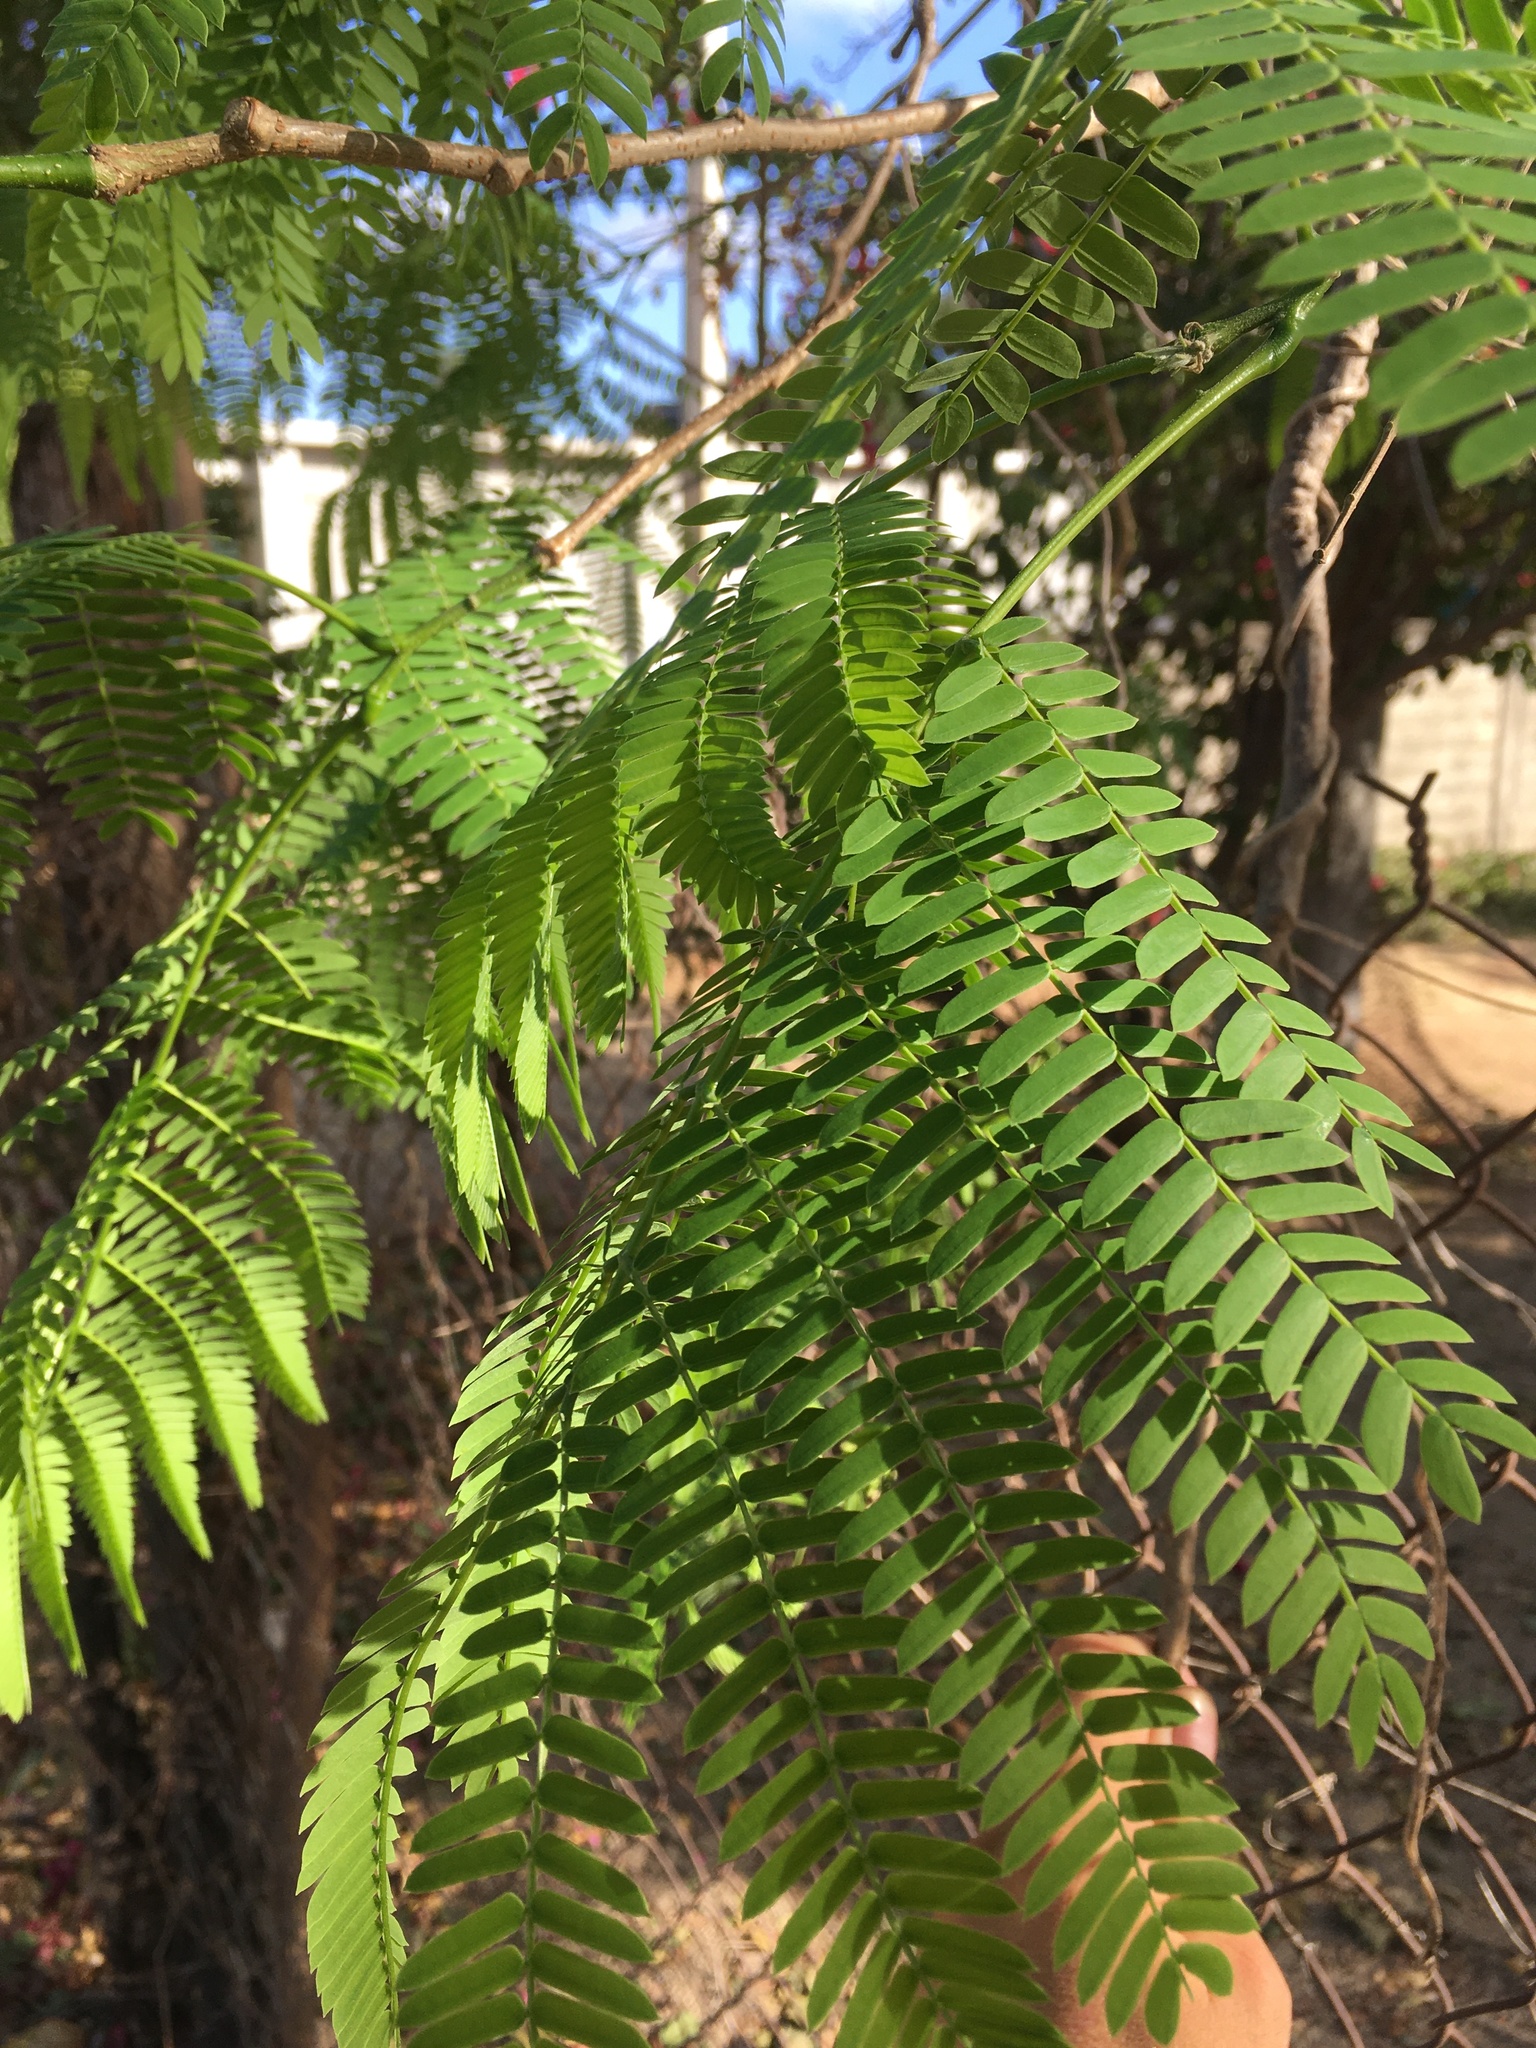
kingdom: Plantae
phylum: Tracheophyta
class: Magnoliopsida
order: Fabales
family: Fabaceae
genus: Enterolobium
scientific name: Enterolobium cyclocarpum
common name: Ear tree
